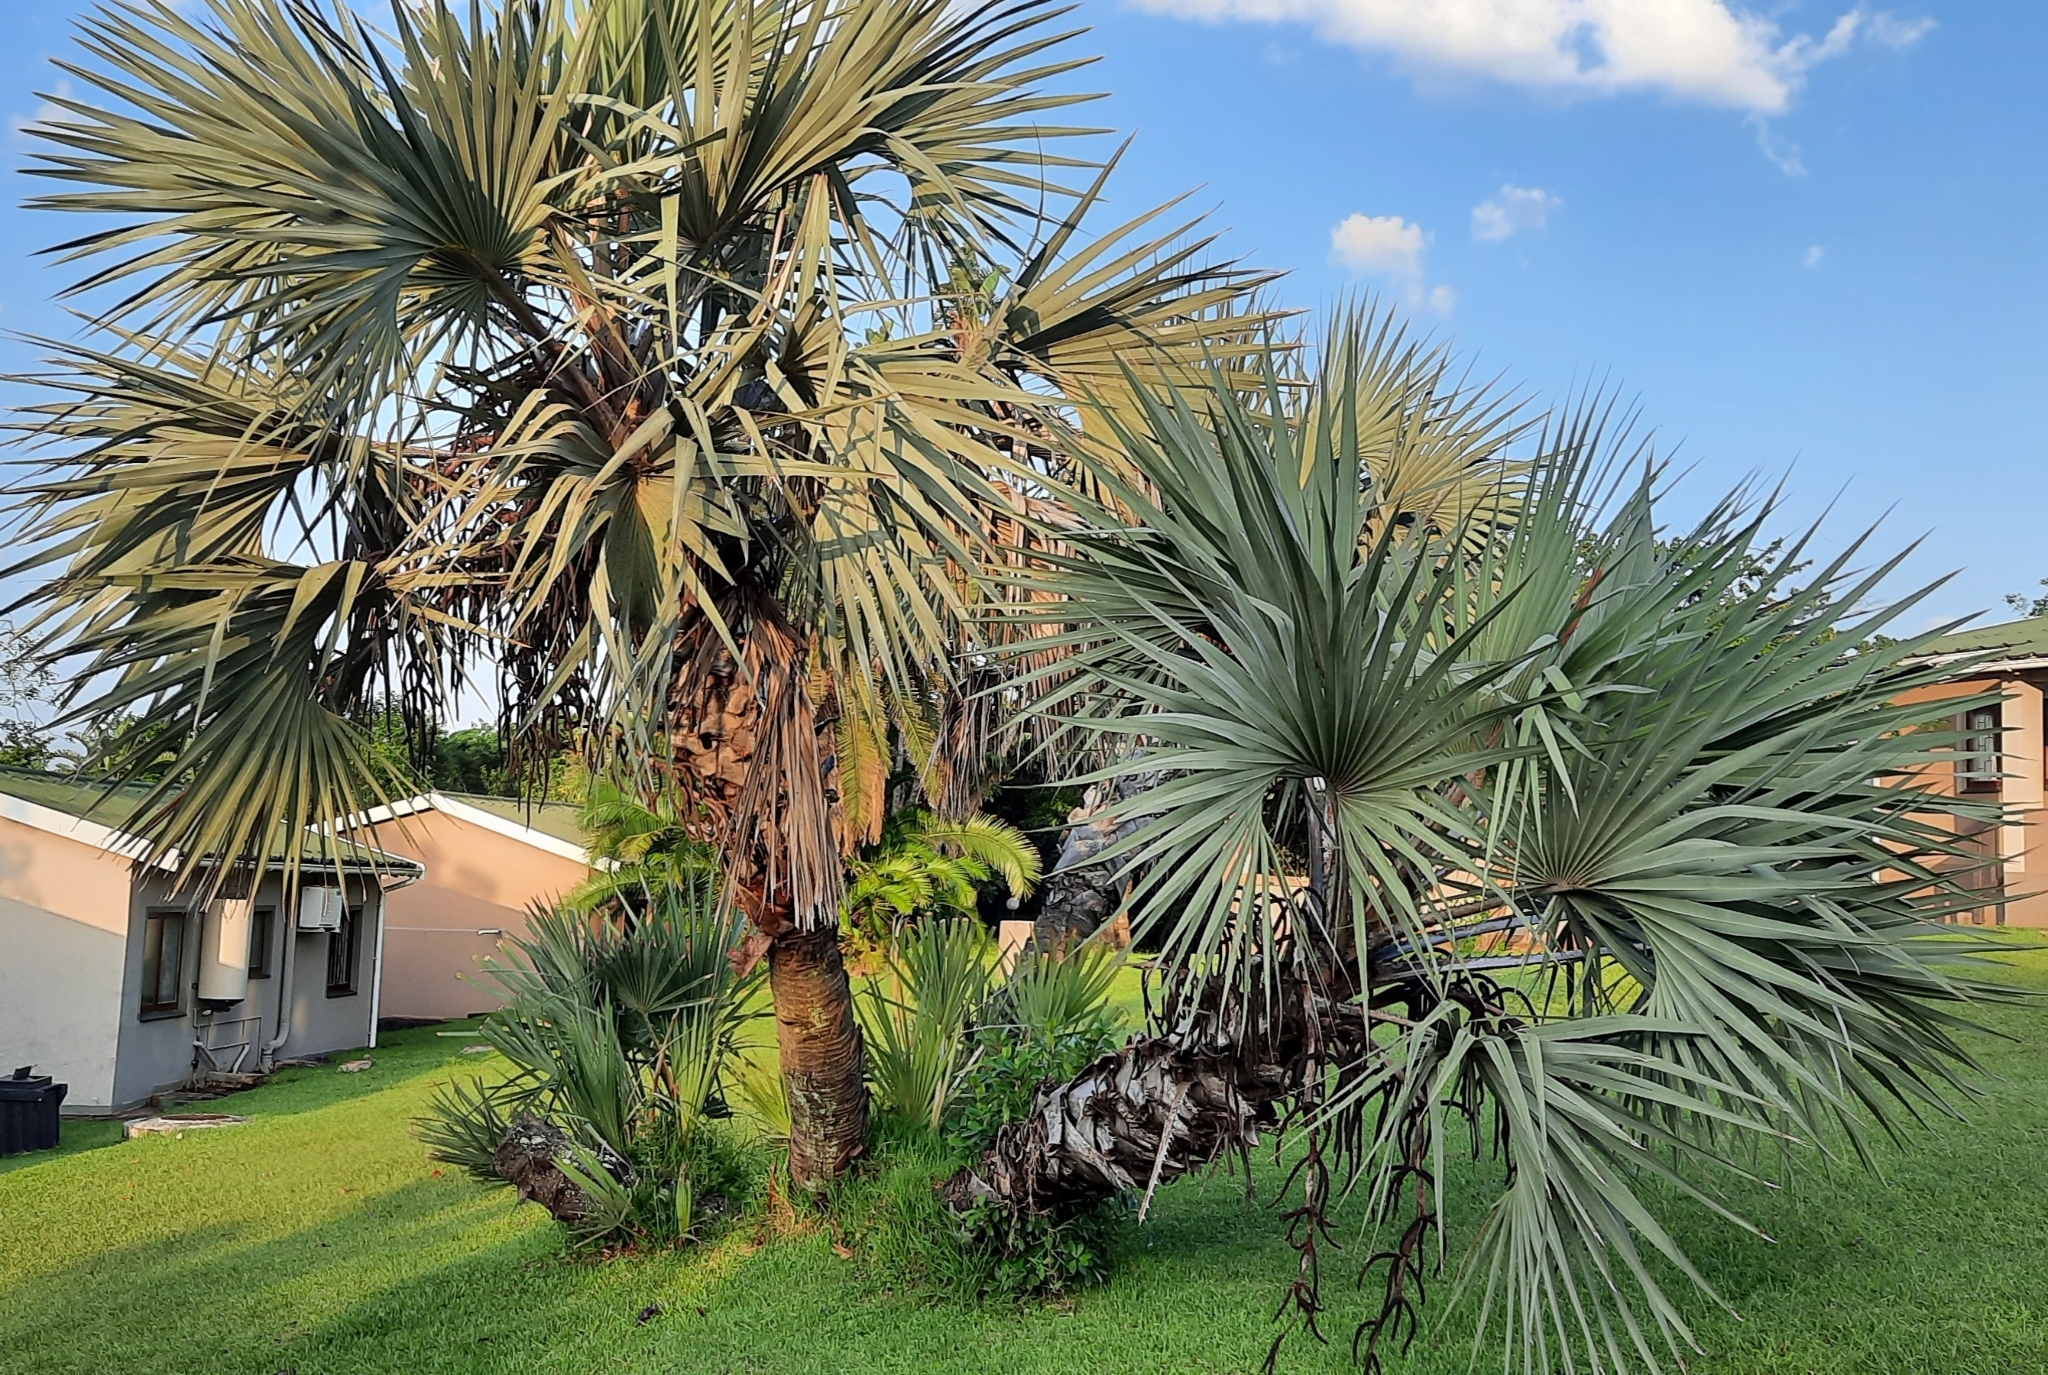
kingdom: Plantae
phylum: Tracheophyta
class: Liliopsida
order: Arecales
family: Arecaceae
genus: Hyphaene
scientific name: Hyphaene coriacea
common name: Ilala palm
